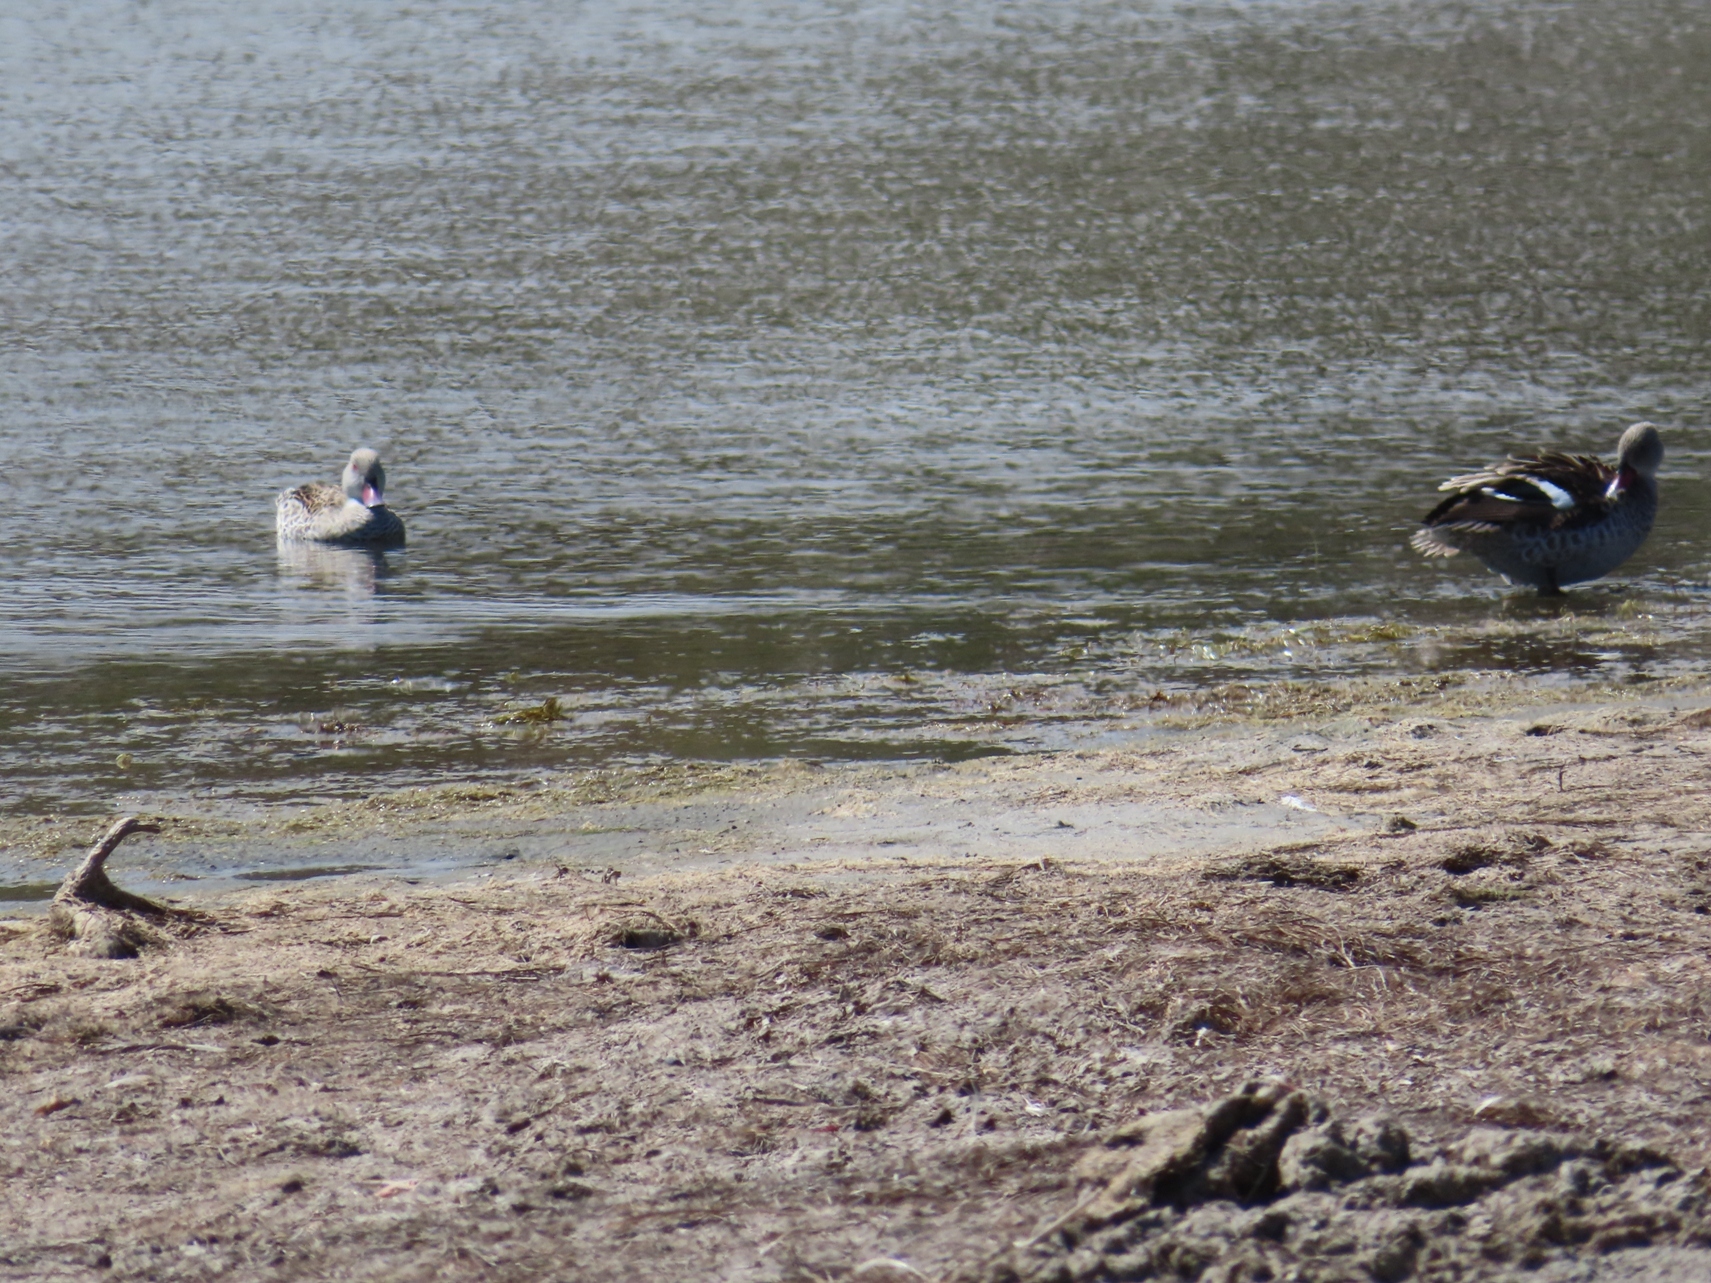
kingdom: Animalia
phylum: Chordata
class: Aves
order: Anseriformes
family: Anatidae
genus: Anas
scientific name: Anas capensis
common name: Cape teal
